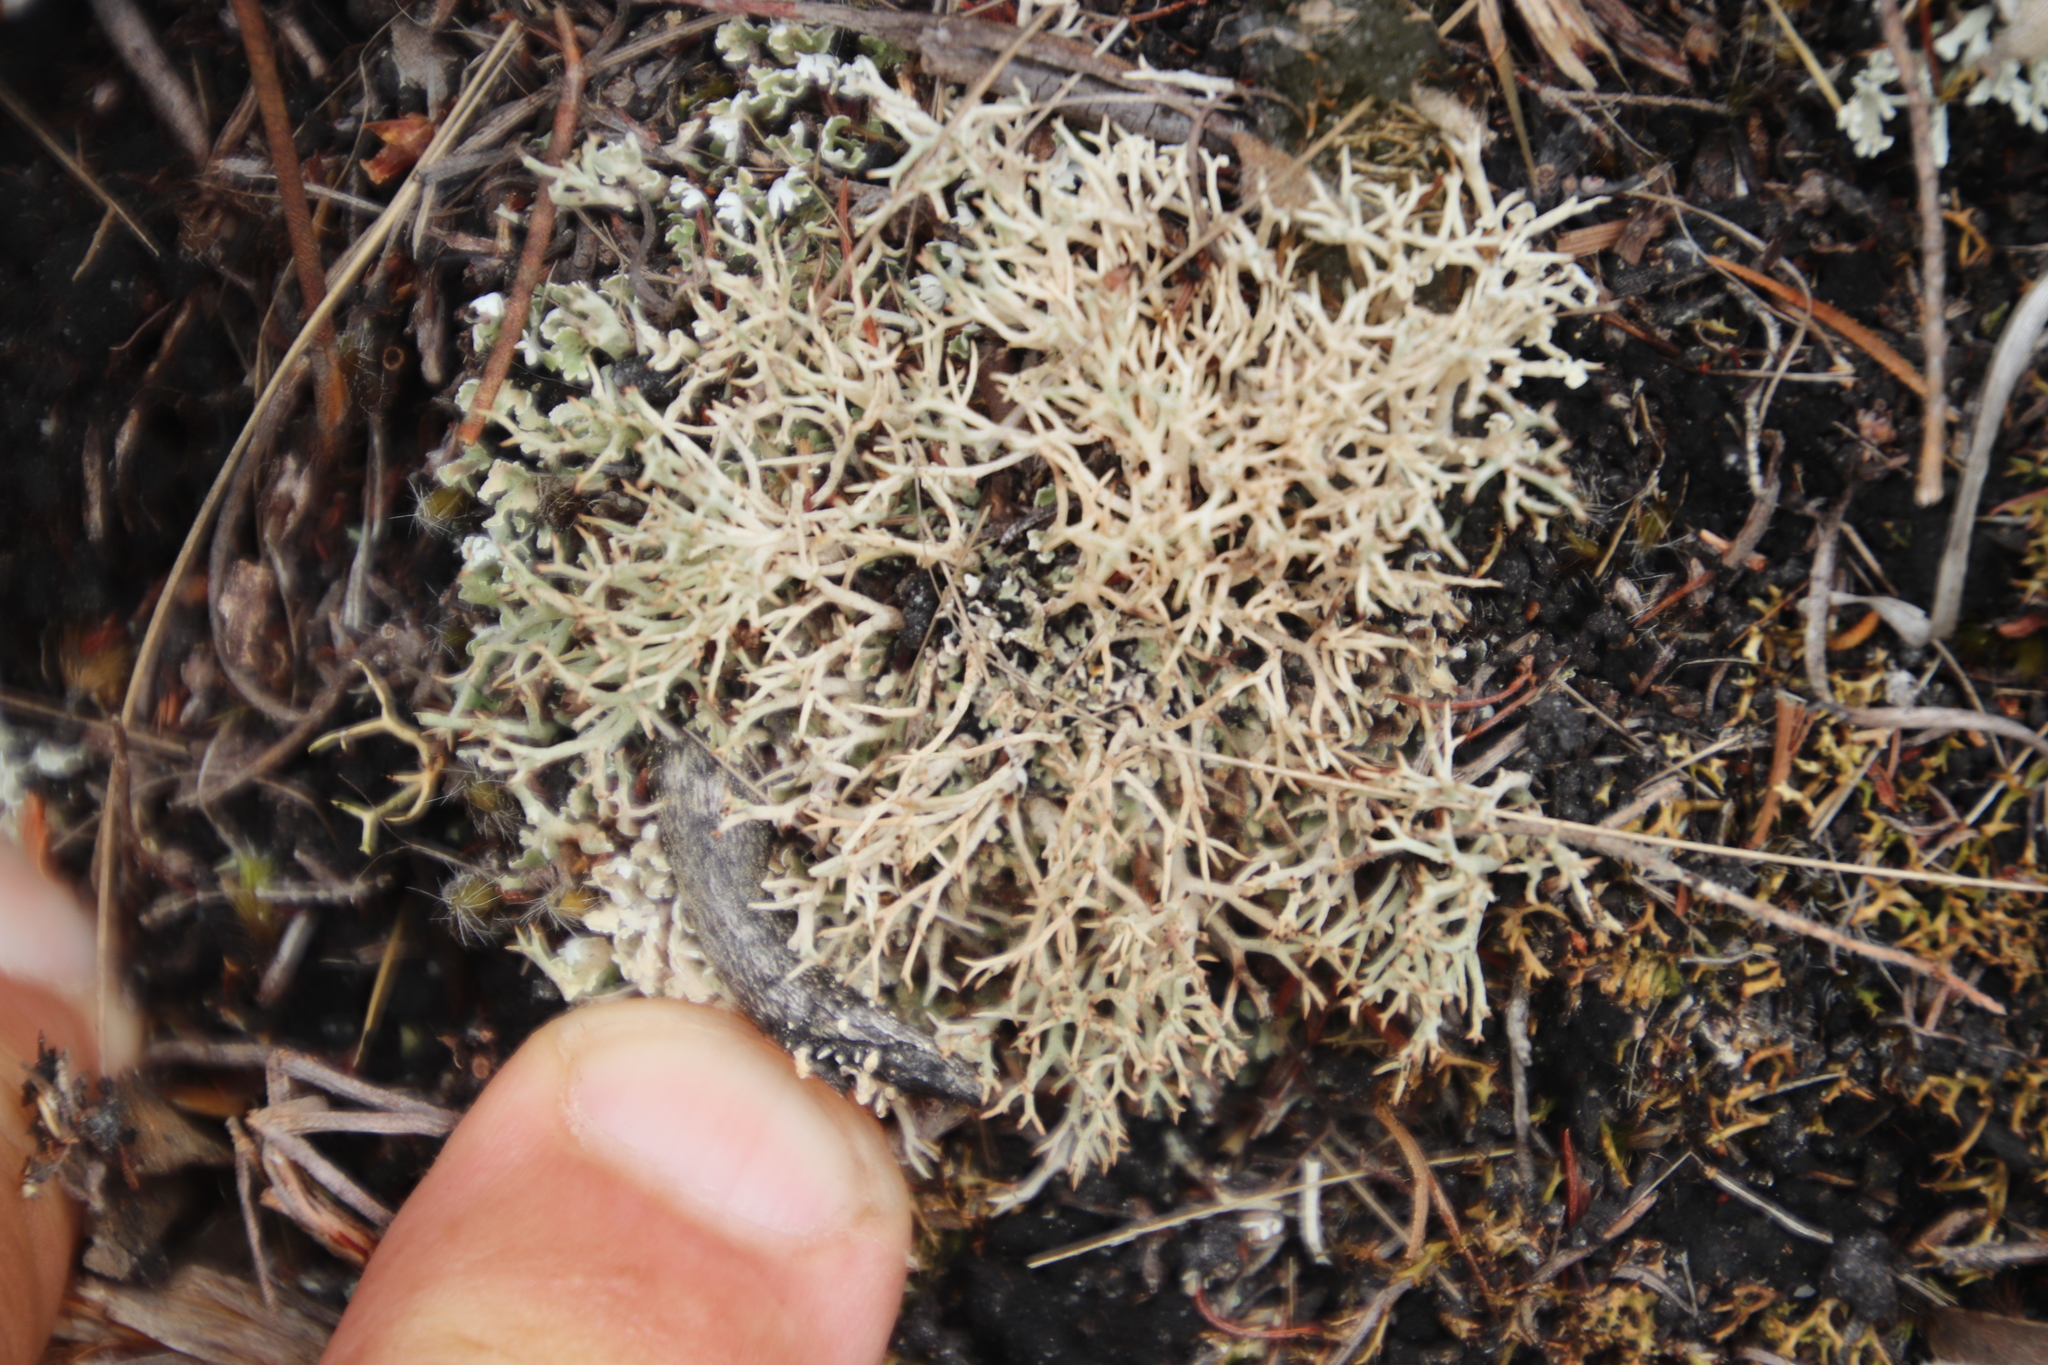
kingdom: Fungi
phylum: Ascomycota
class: Lecanoromycetes
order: Lecanorales
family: Cladoniaceae
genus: Cladonia
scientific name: Cladonia
